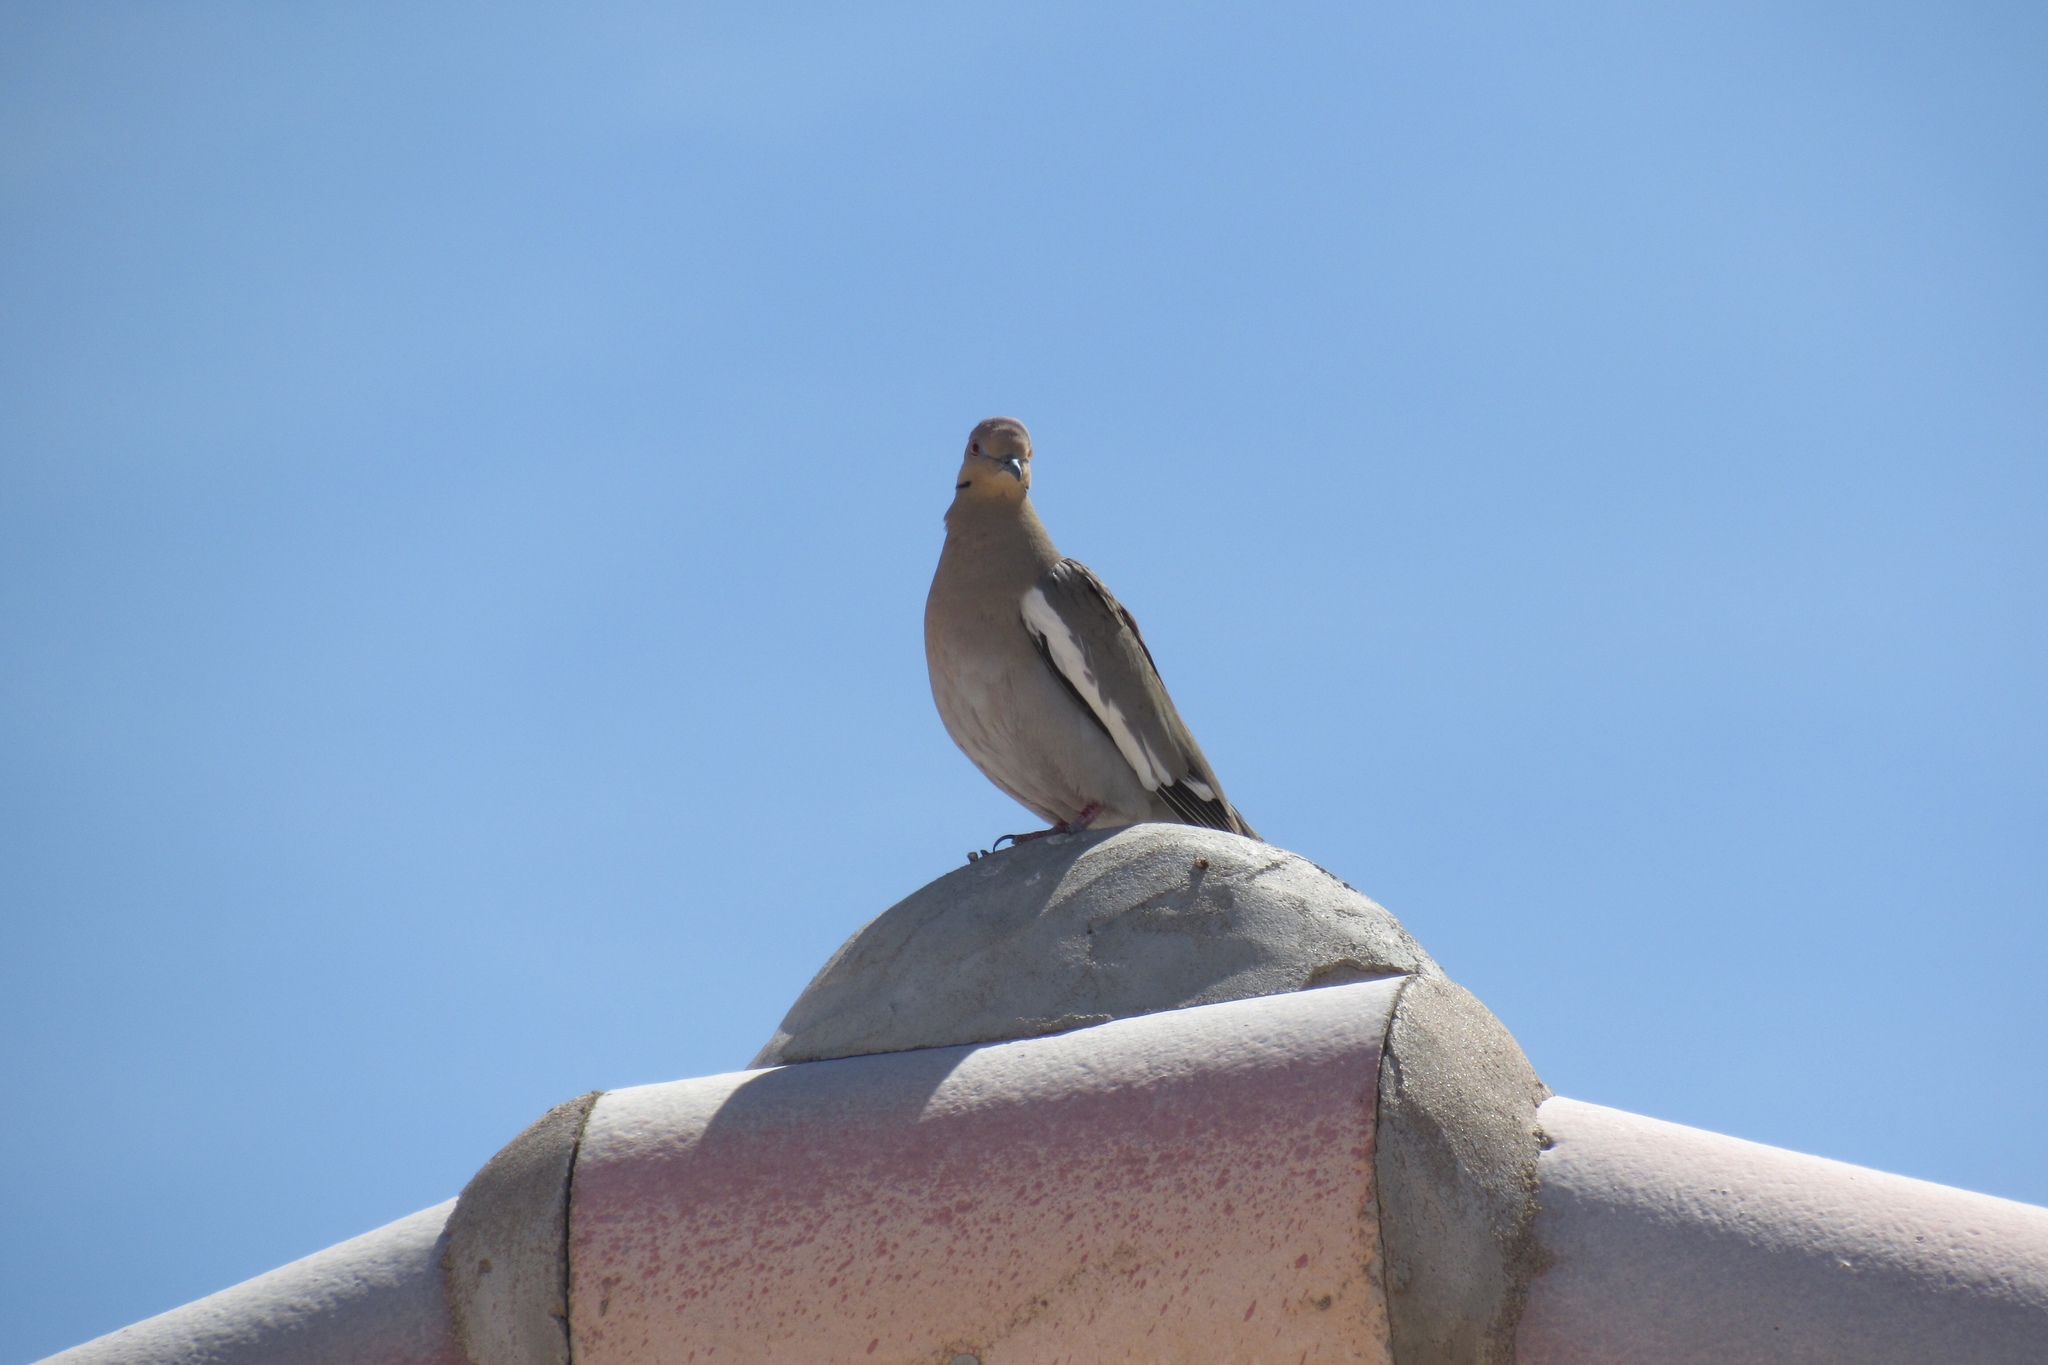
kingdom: Animalia
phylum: Chordata
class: Aves
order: Columbiformes
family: Columbidae
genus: Zenaida
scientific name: Zenaida asiatica
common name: White-winged dove
